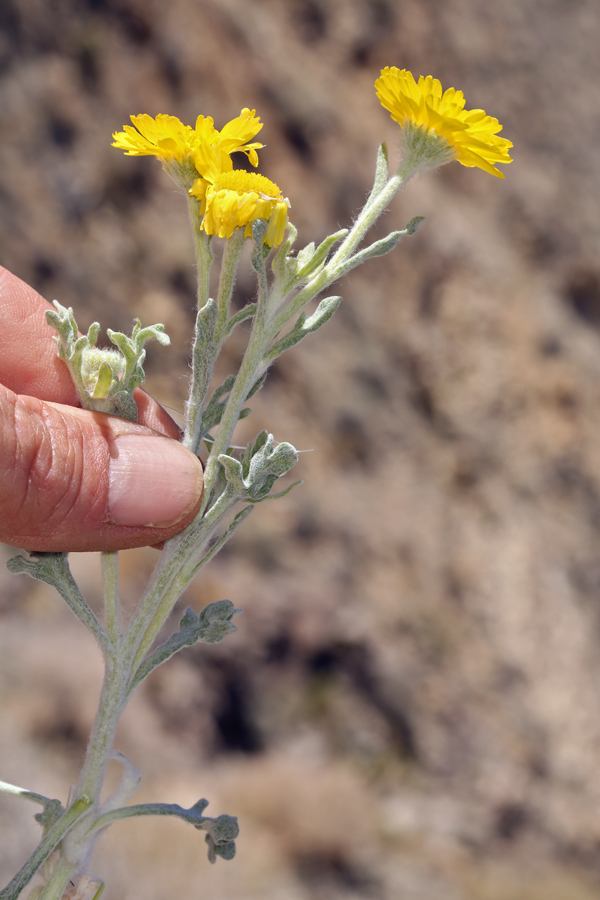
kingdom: Plantae
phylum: Tracheophyta
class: Magnoliopsida
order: Asterales
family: Asteraceae
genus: Baileya
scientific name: Baileya pleniradiata
